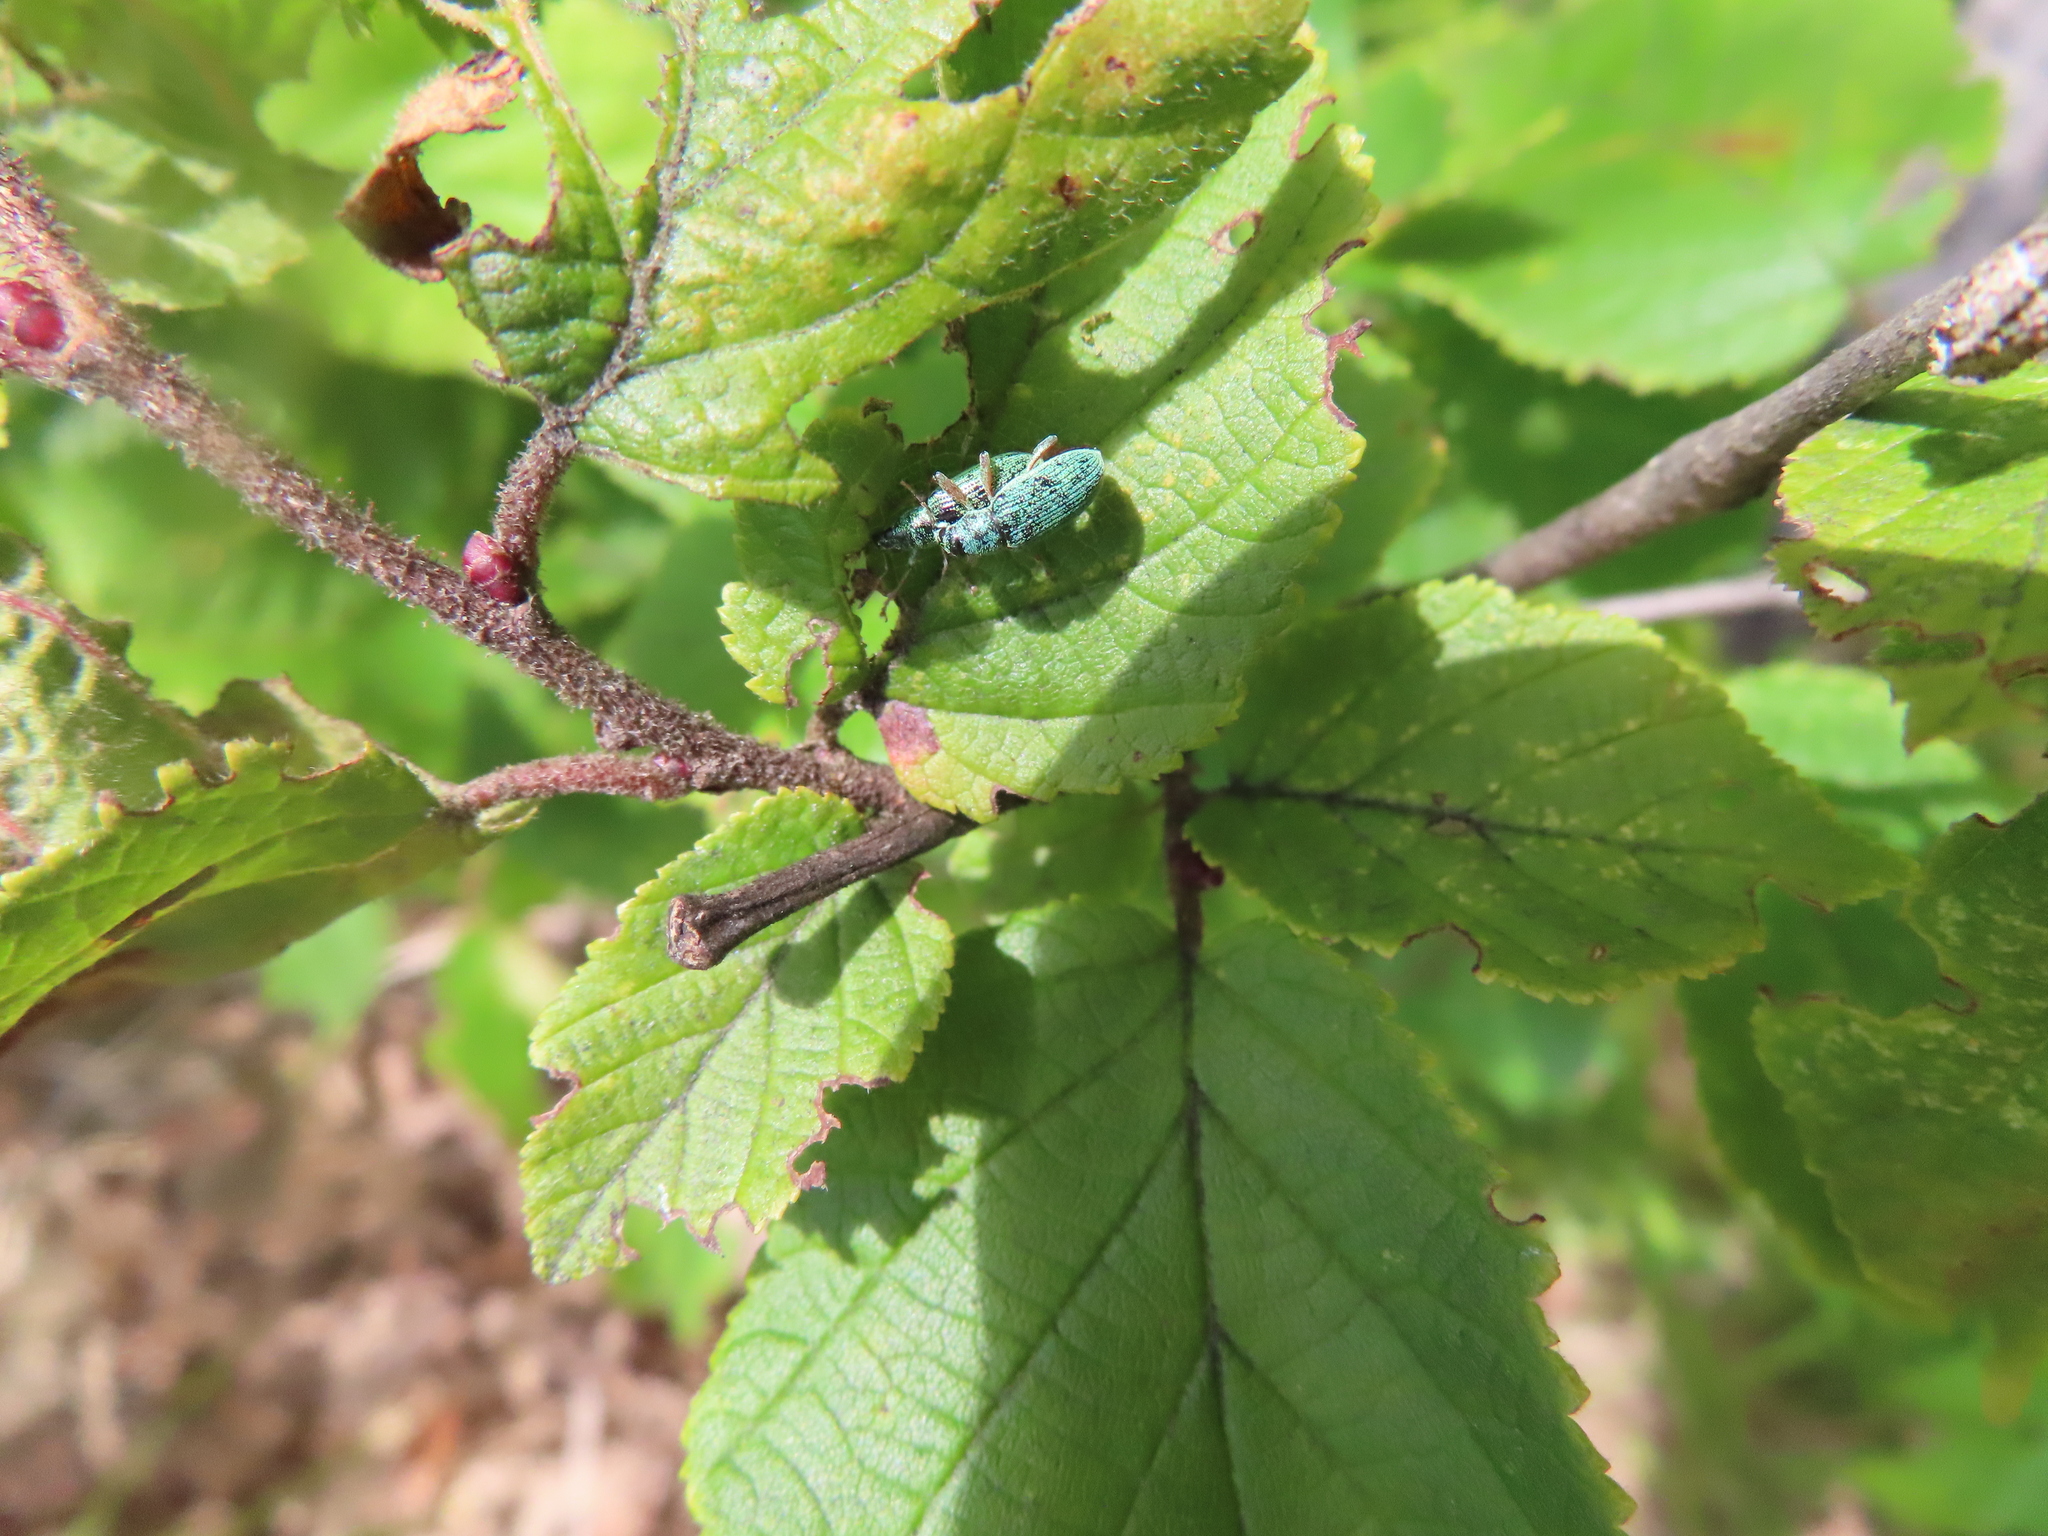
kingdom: Animalia
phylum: Arthropoda
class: Insecta
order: Coleoptera
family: Curculionidae
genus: Polydrusus
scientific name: Polydrusus formosus
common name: Weevil
